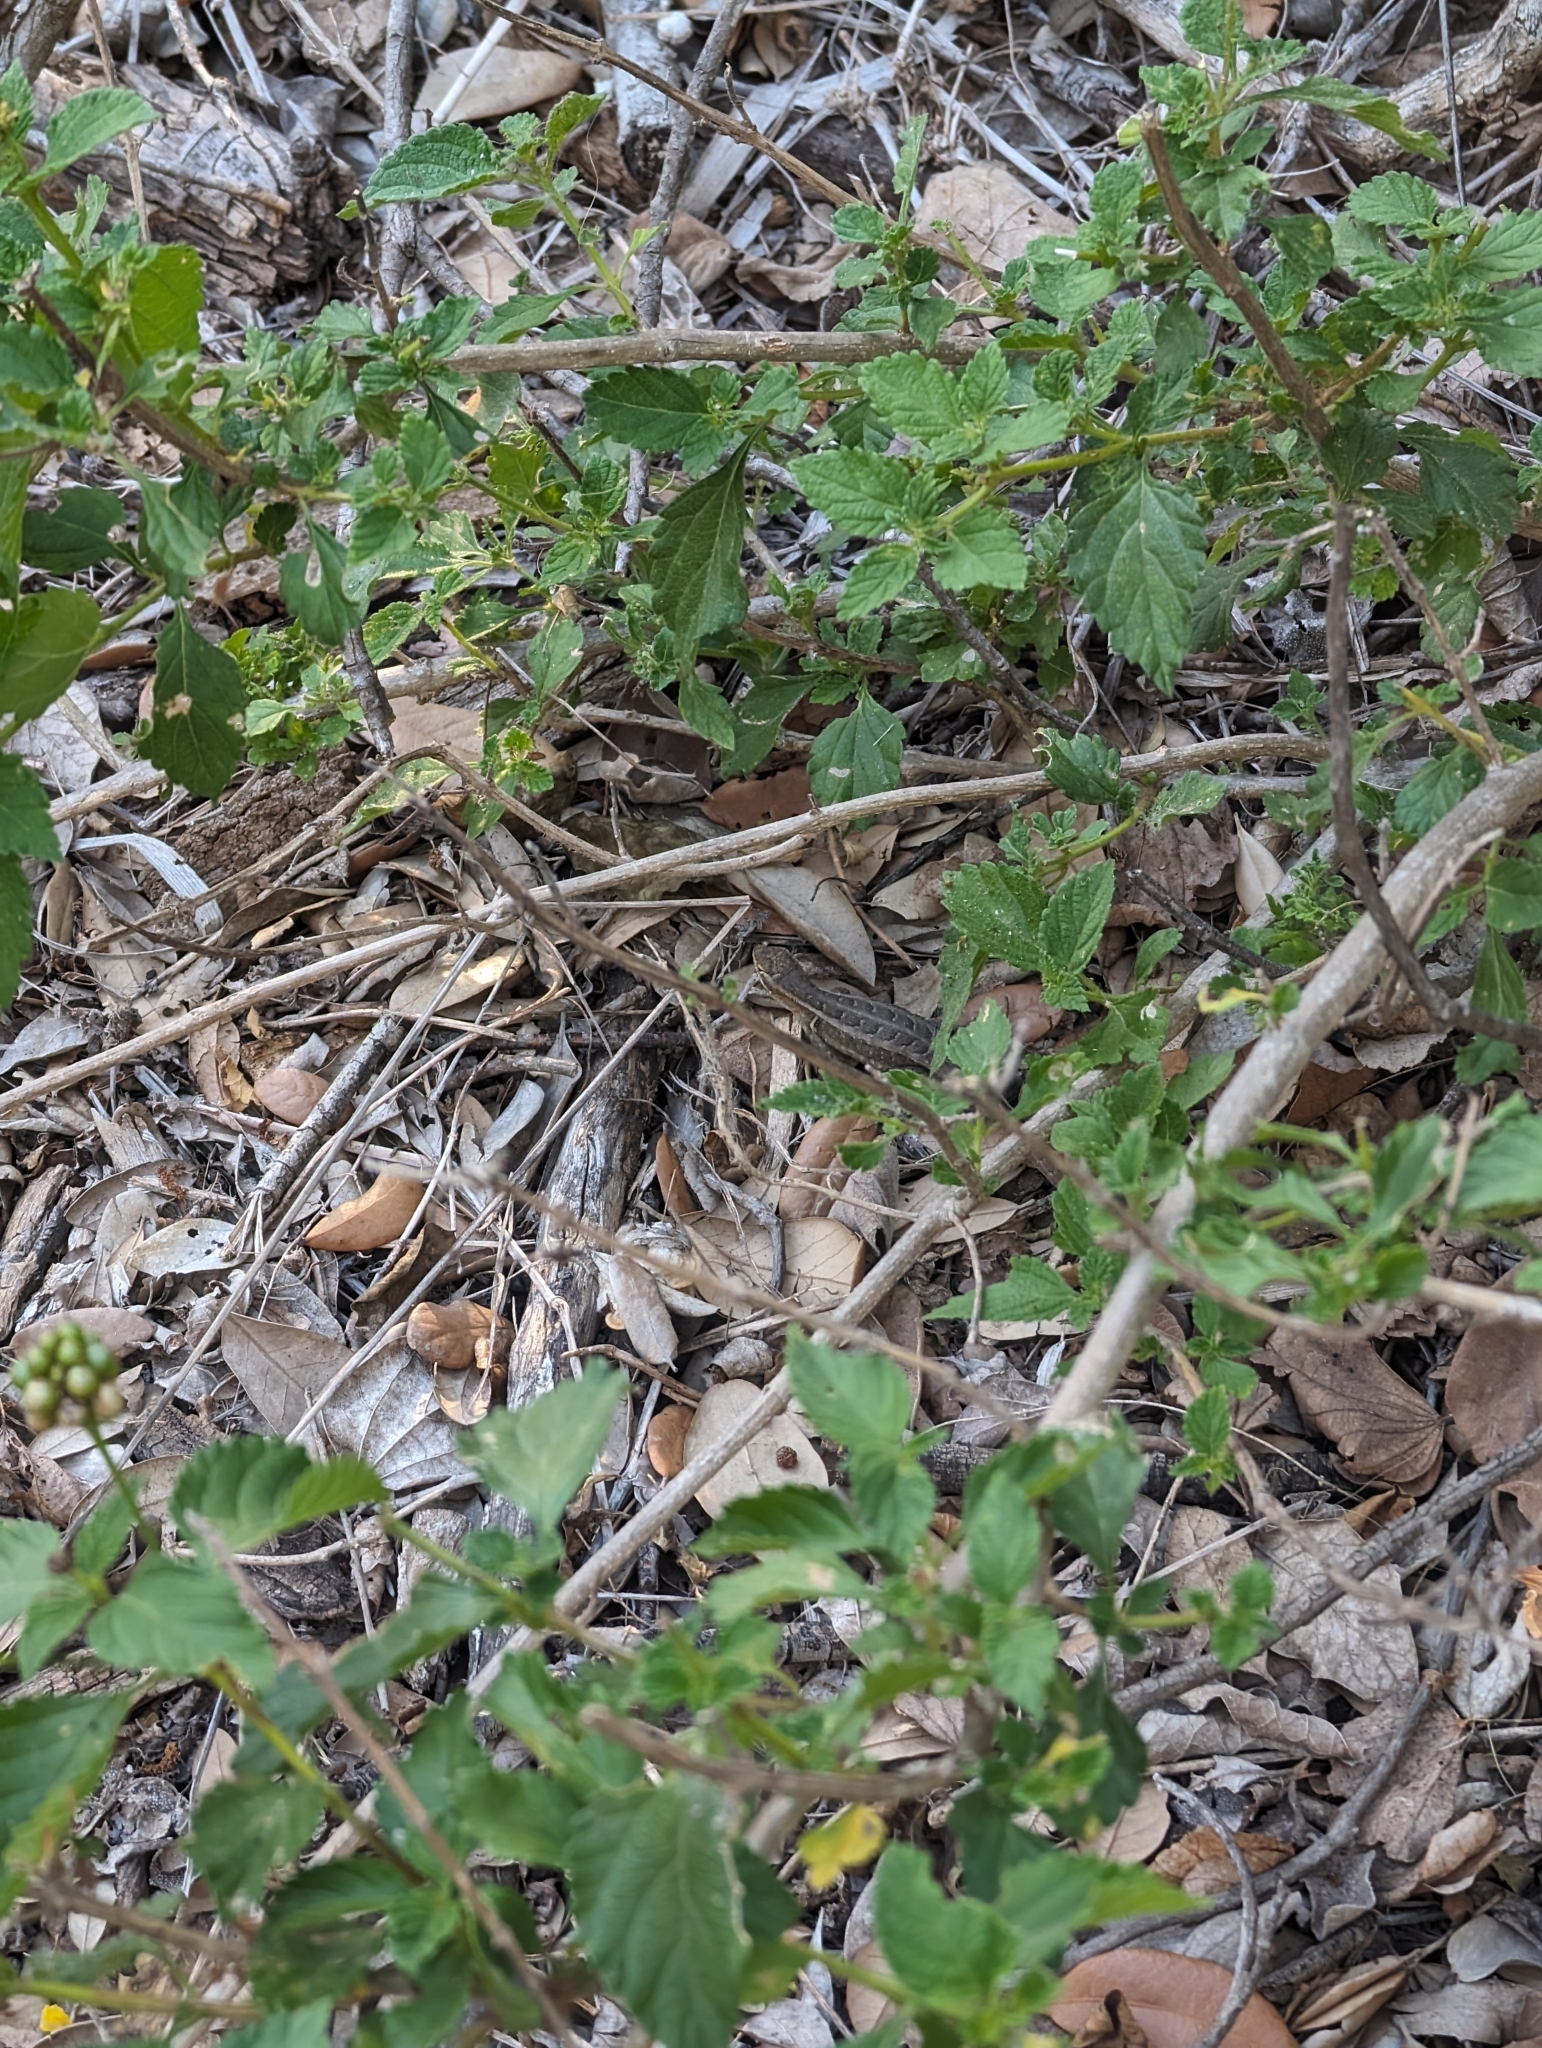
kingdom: Animalia
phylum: Chordata
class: Squamata
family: Phrynosomatidae
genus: Sceloporus
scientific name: Sceloporus variabilis
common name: Rosebelly lizard
